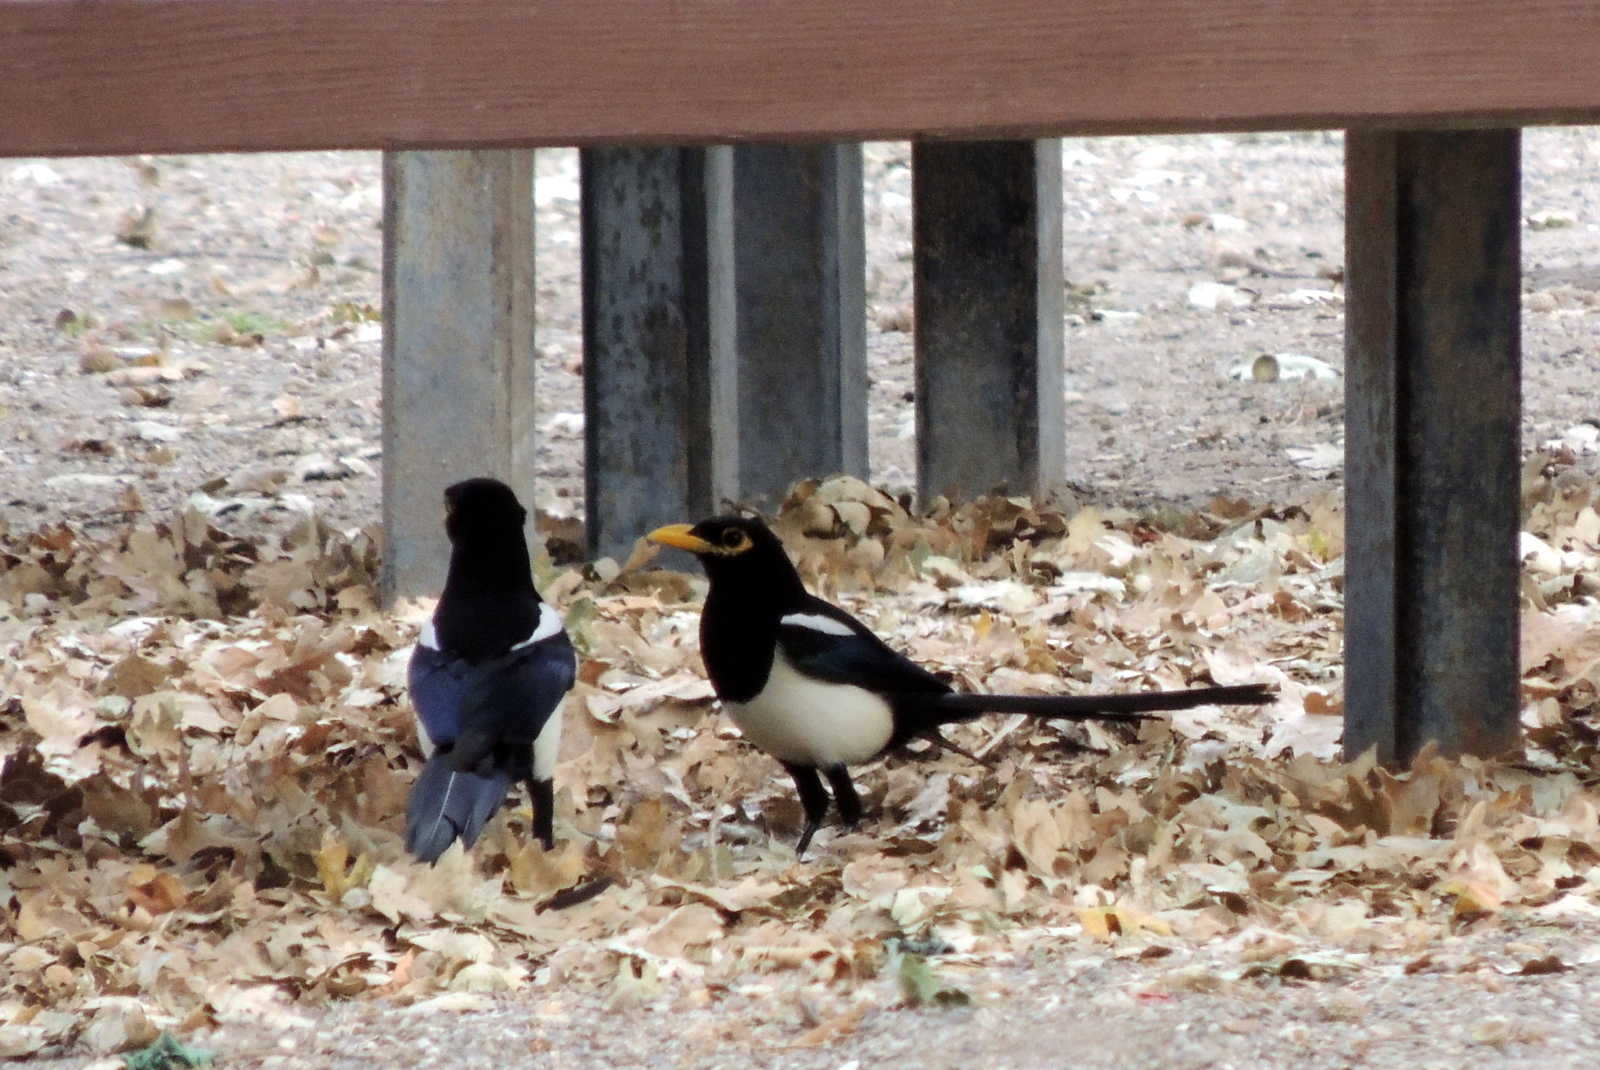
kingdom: Animalia
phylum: Chordata
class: Aves
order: Passeriformes
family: Corvidae
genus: Pica
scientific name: Pica nuttalli
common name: Yellow-billed magpie
